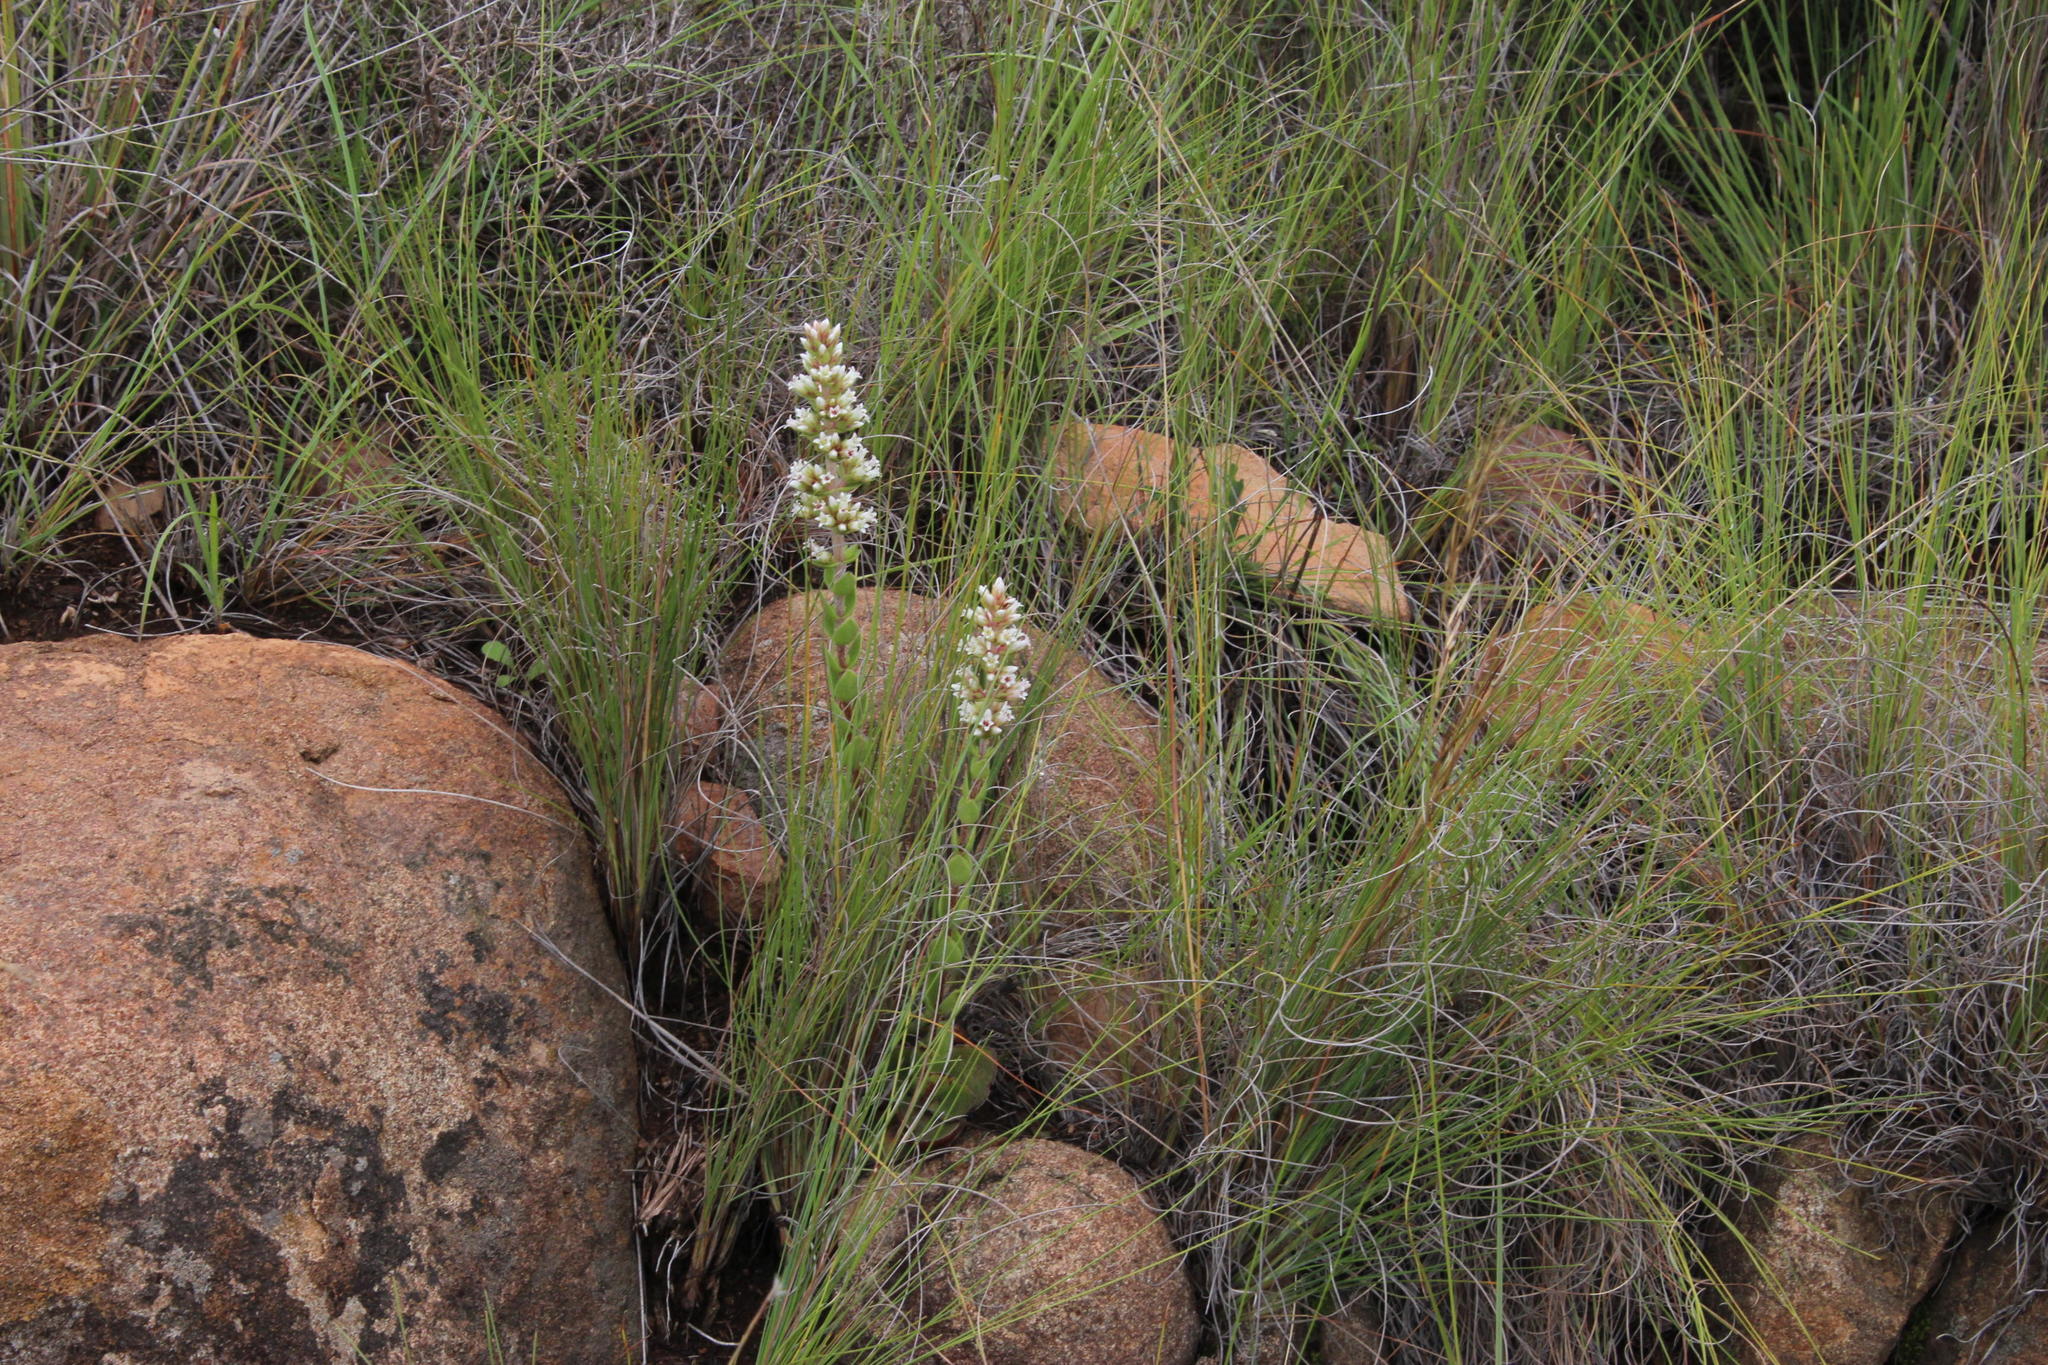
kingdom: Plantae
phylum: Tracheophyta
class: Magnoliopsida
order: Saxifragales
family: Crassulaceae
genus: Crassula
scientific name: Crassula obovata
